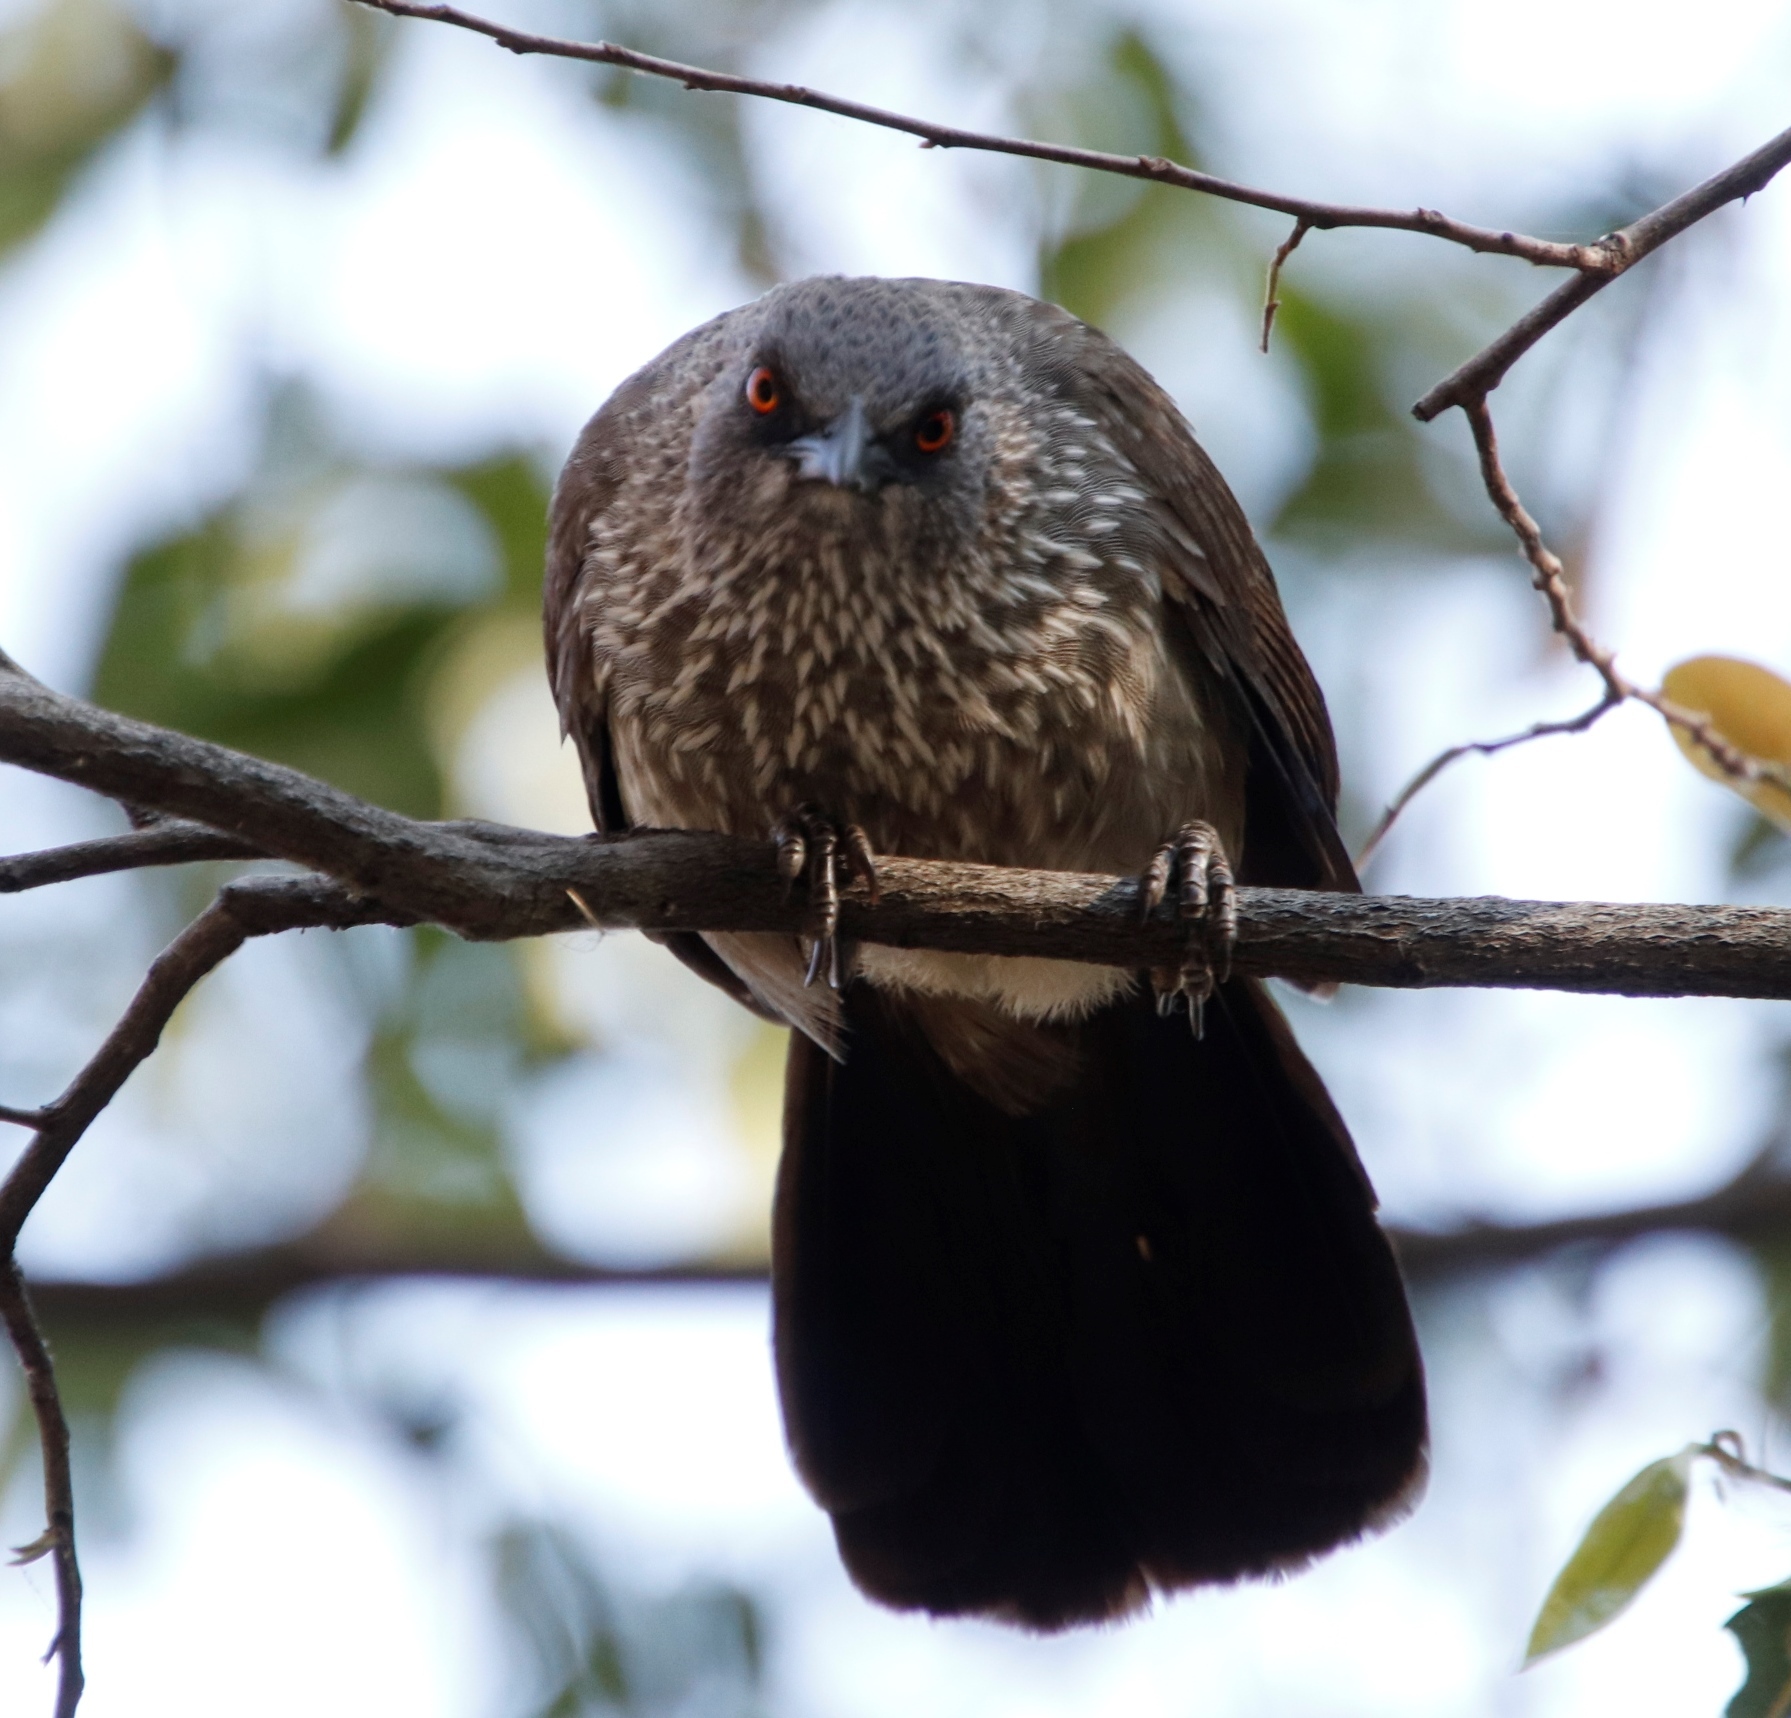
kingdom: Animalia
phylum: Chordata
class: Aves
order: Passeriformes
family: Leiothrichidae
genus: Turdoides
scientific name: Turdoides jardineii
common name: Arrow-marked babbler
